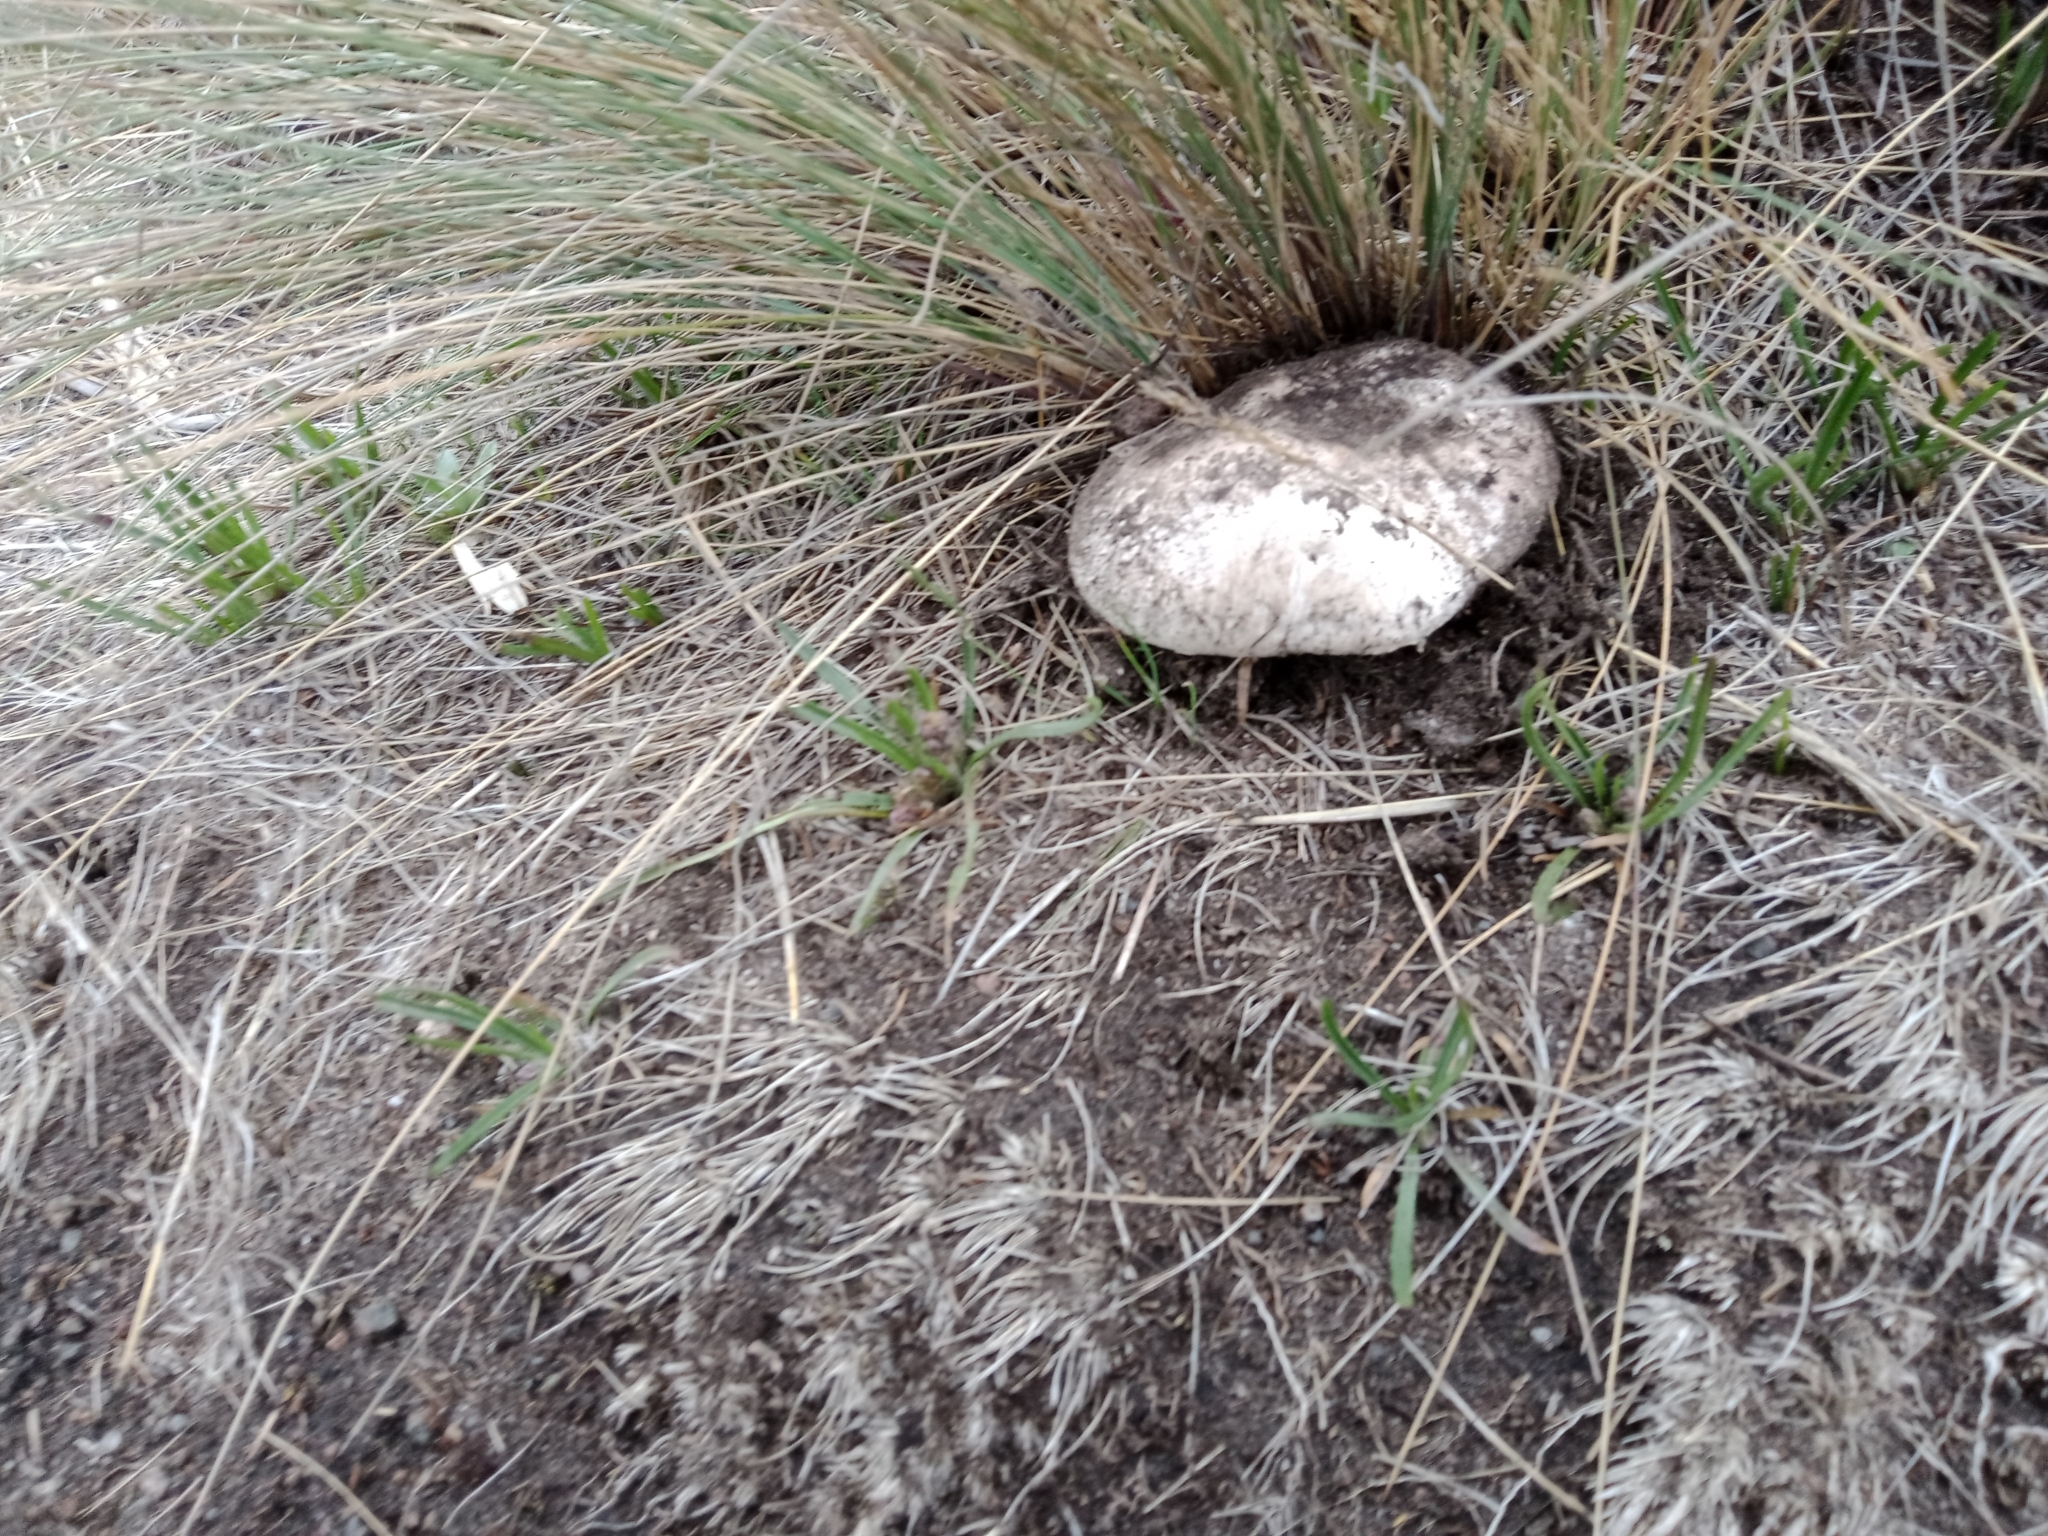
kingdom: Fungi
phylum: Basidiomycota
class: Agaricomycetes
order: Agaricales
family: Agaricaceae
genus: Agaricus
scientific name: Agaricus campestris
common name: Field mushroom
